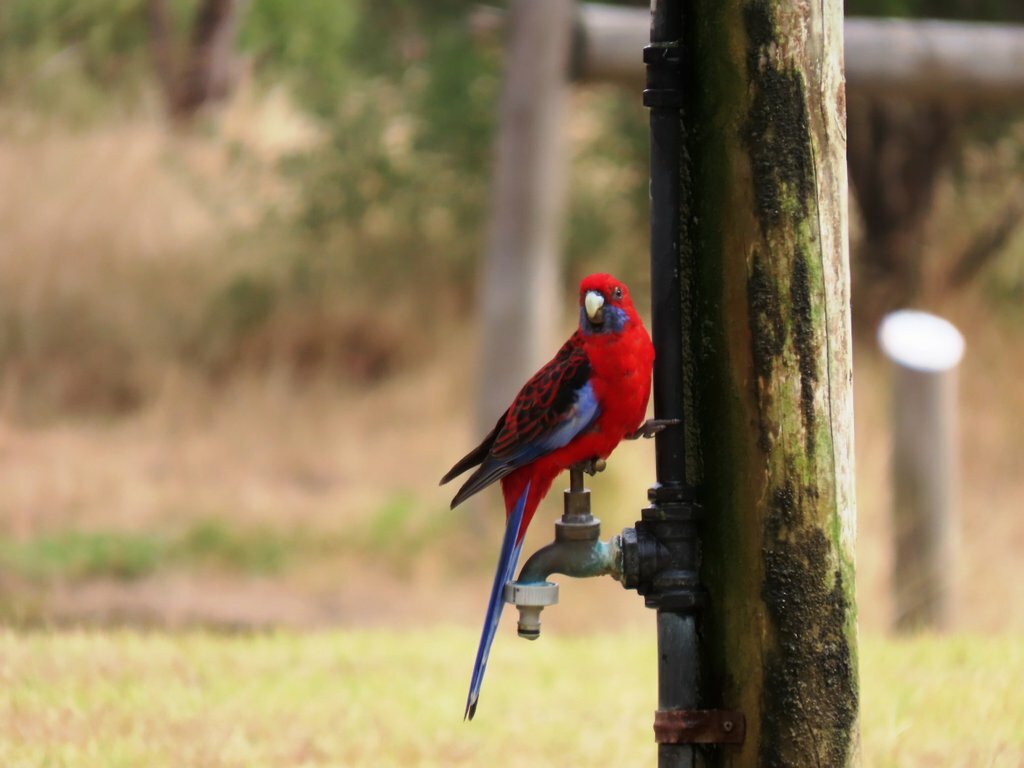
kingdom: Animalia
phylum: Chordata
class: Aves
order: Psittaciformes
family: Psittacidae
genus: Platycercus
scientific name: Platycercus elegans
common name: Crimson rosella
